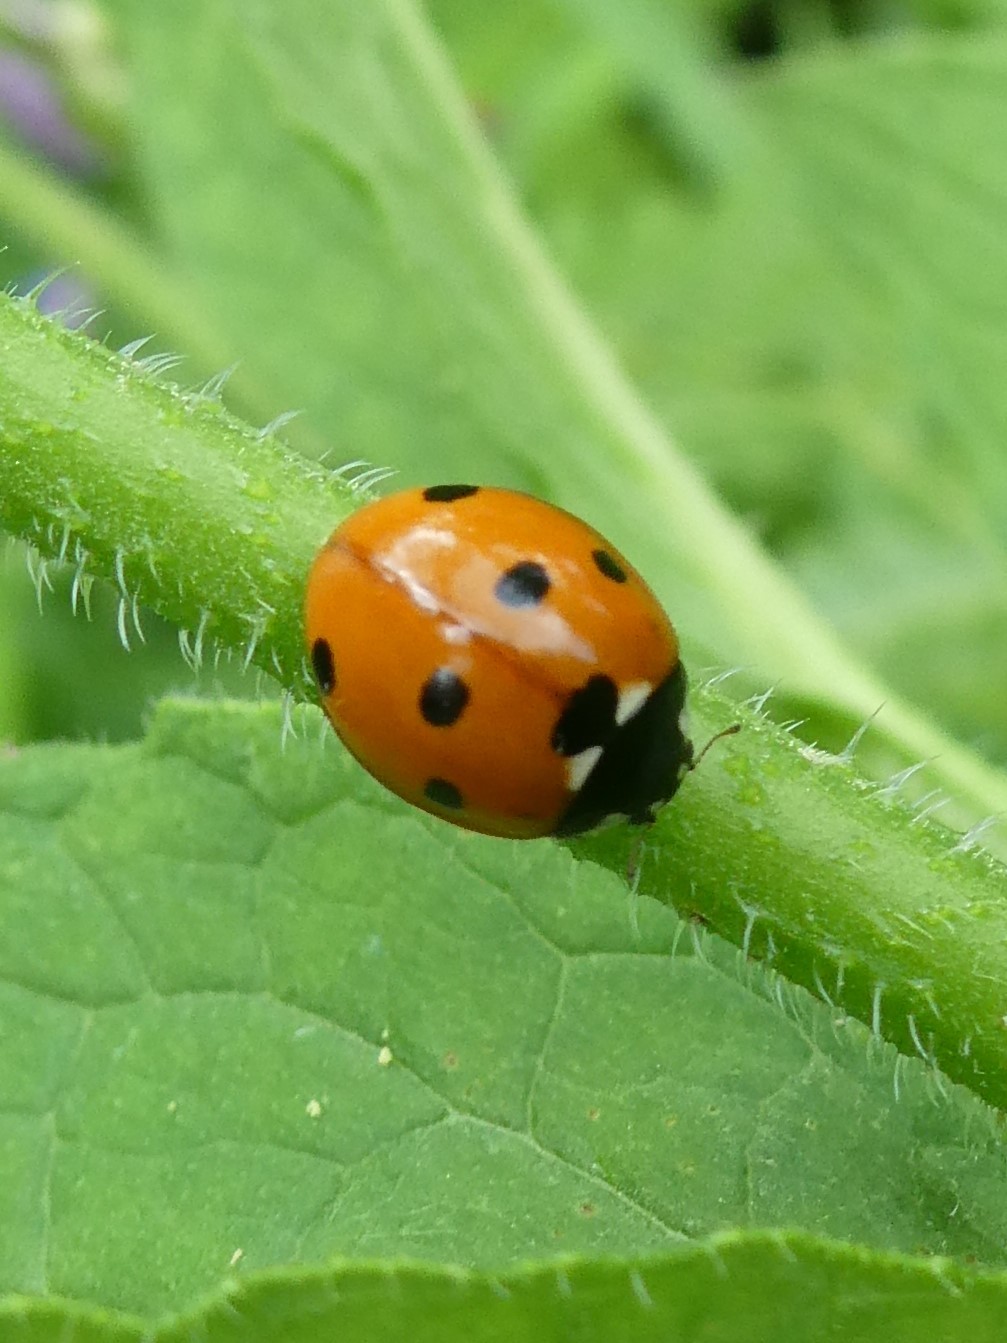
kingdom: Animalia
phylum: Arthropoda
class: Insecta
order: Coleoptera
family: Coccinellidae
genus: Coccinella
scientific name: Coccinella septempunctata
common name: Sevenspotted lady beetle
